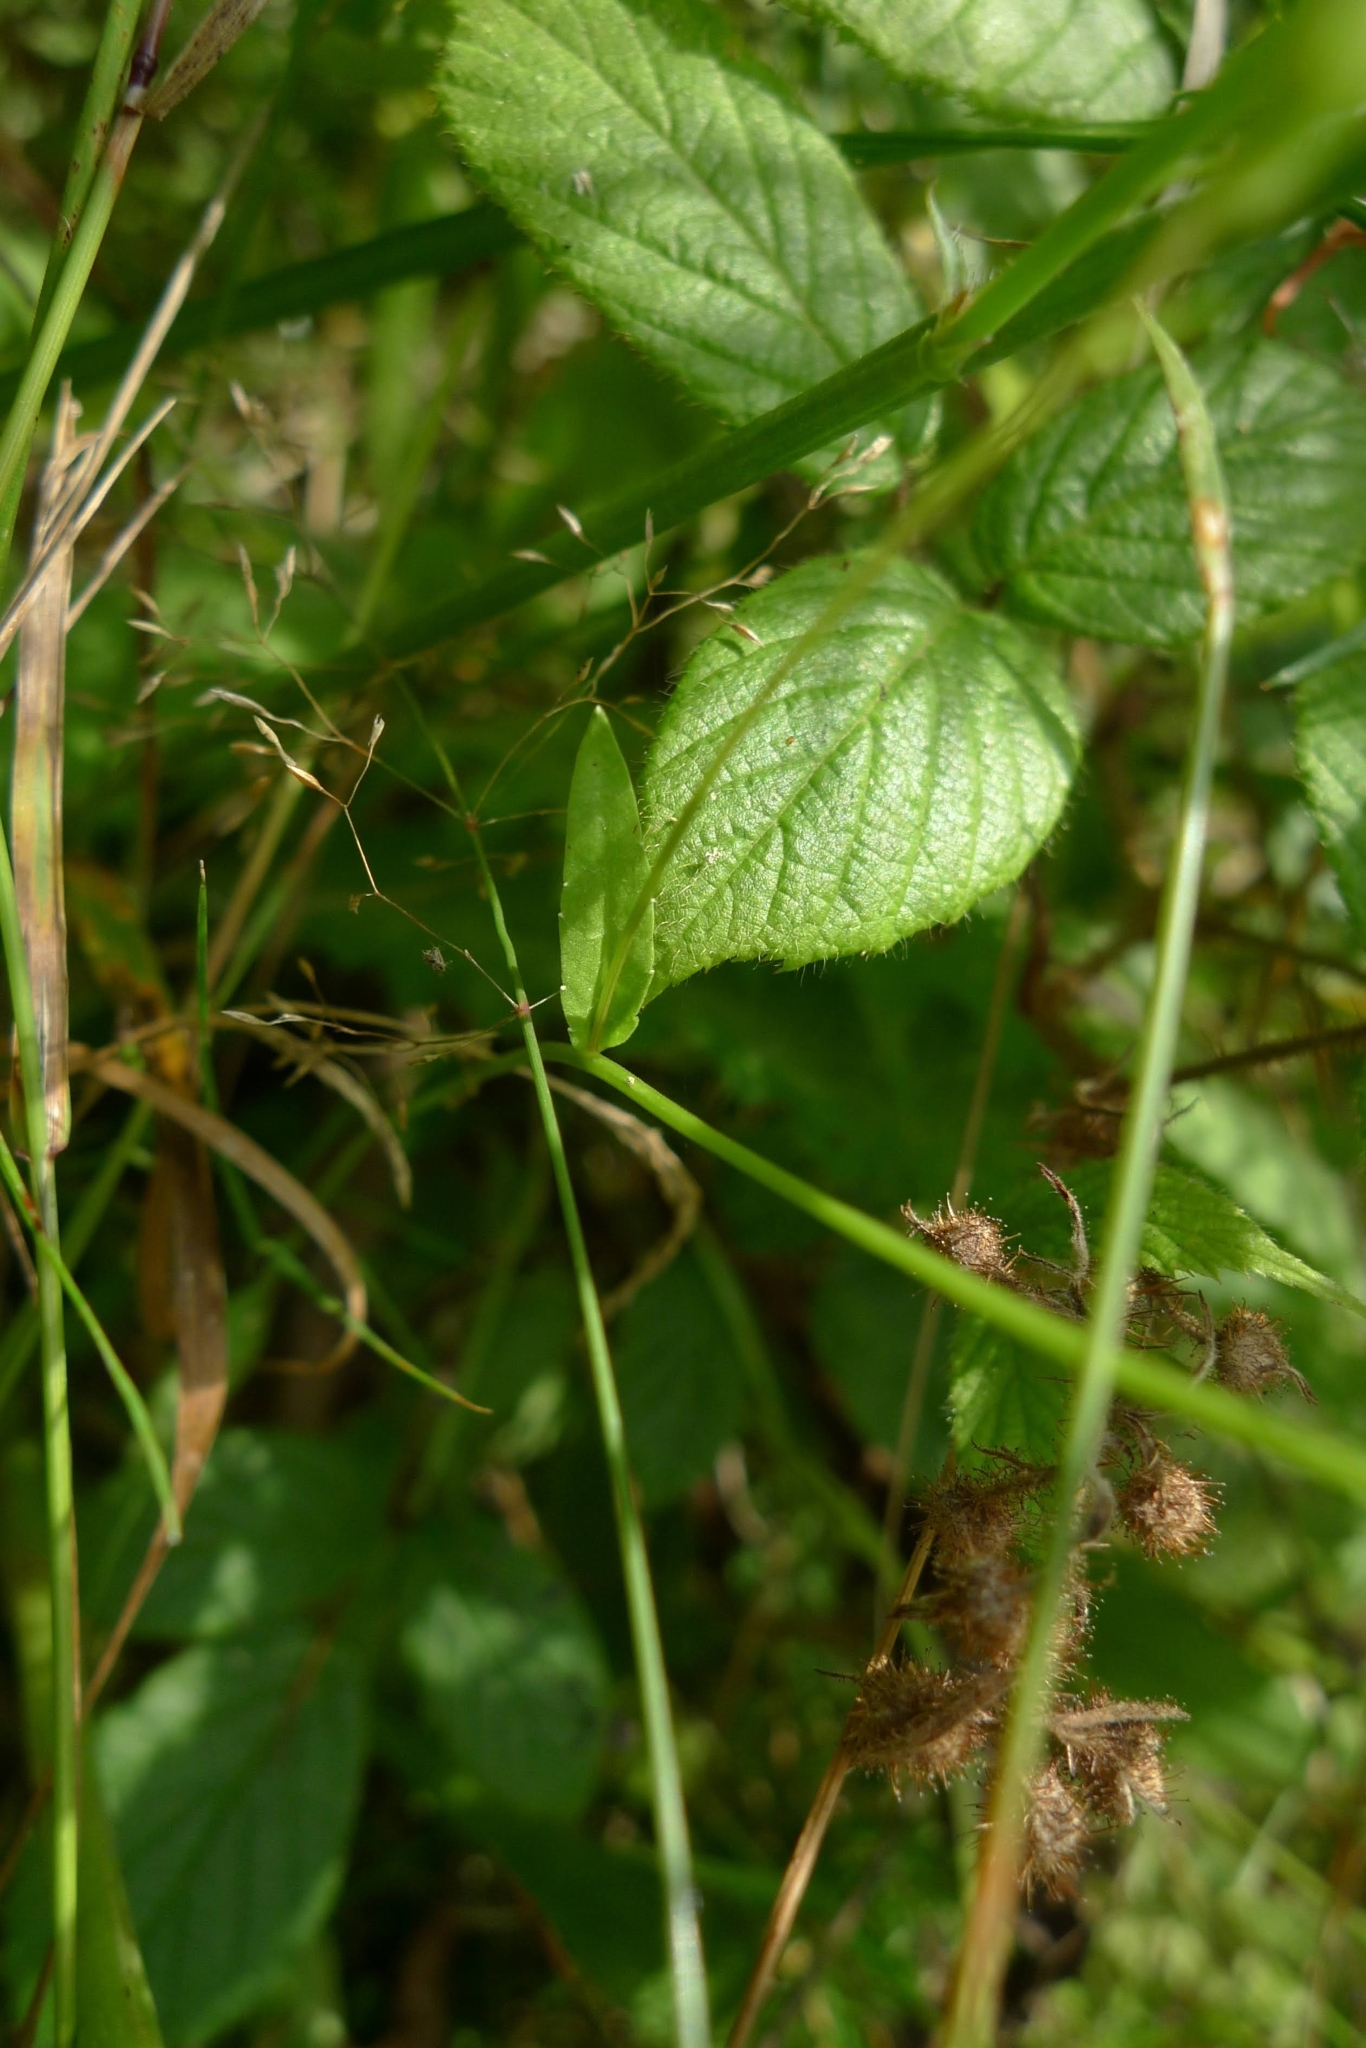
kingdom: Plantae
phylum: Tracheophyta
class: Magnoliopsida
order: Asterales
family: Campanulaceae
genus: Campanula
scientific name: Campanula patula
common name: Spreading bellflower
